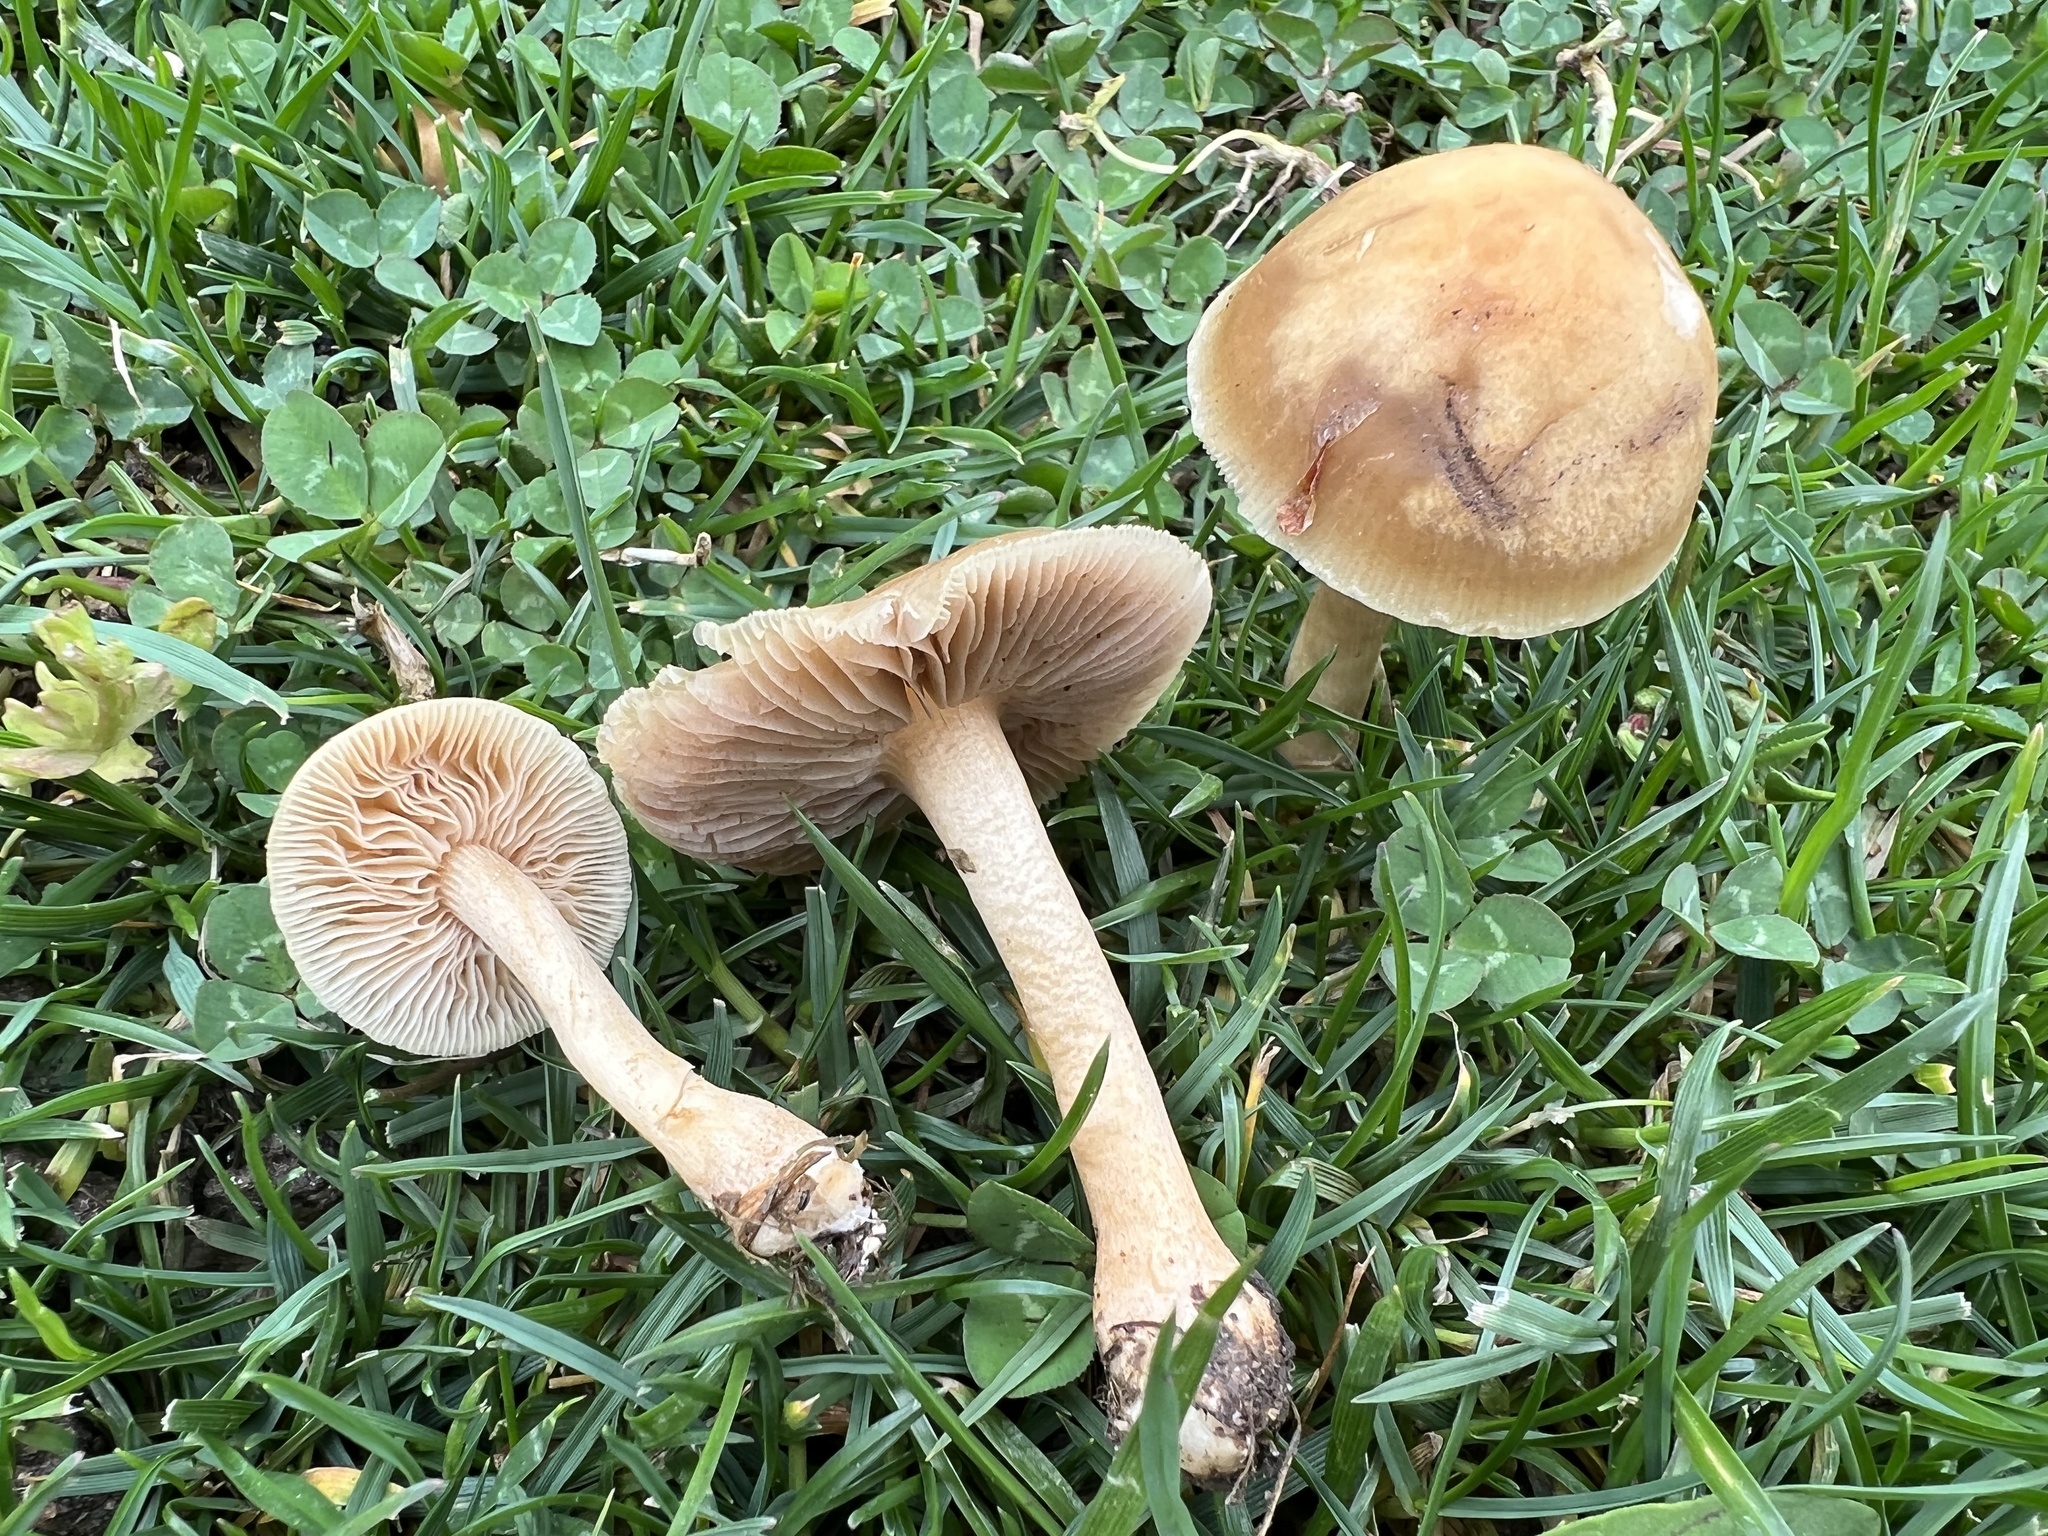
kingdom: Fungi
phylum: Basidiomycota
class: Agaricomycetes
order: Agaricales
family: Strophariaceae
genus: Agrocybe
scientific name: Agrocybe pediades
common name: Common fieldcap
